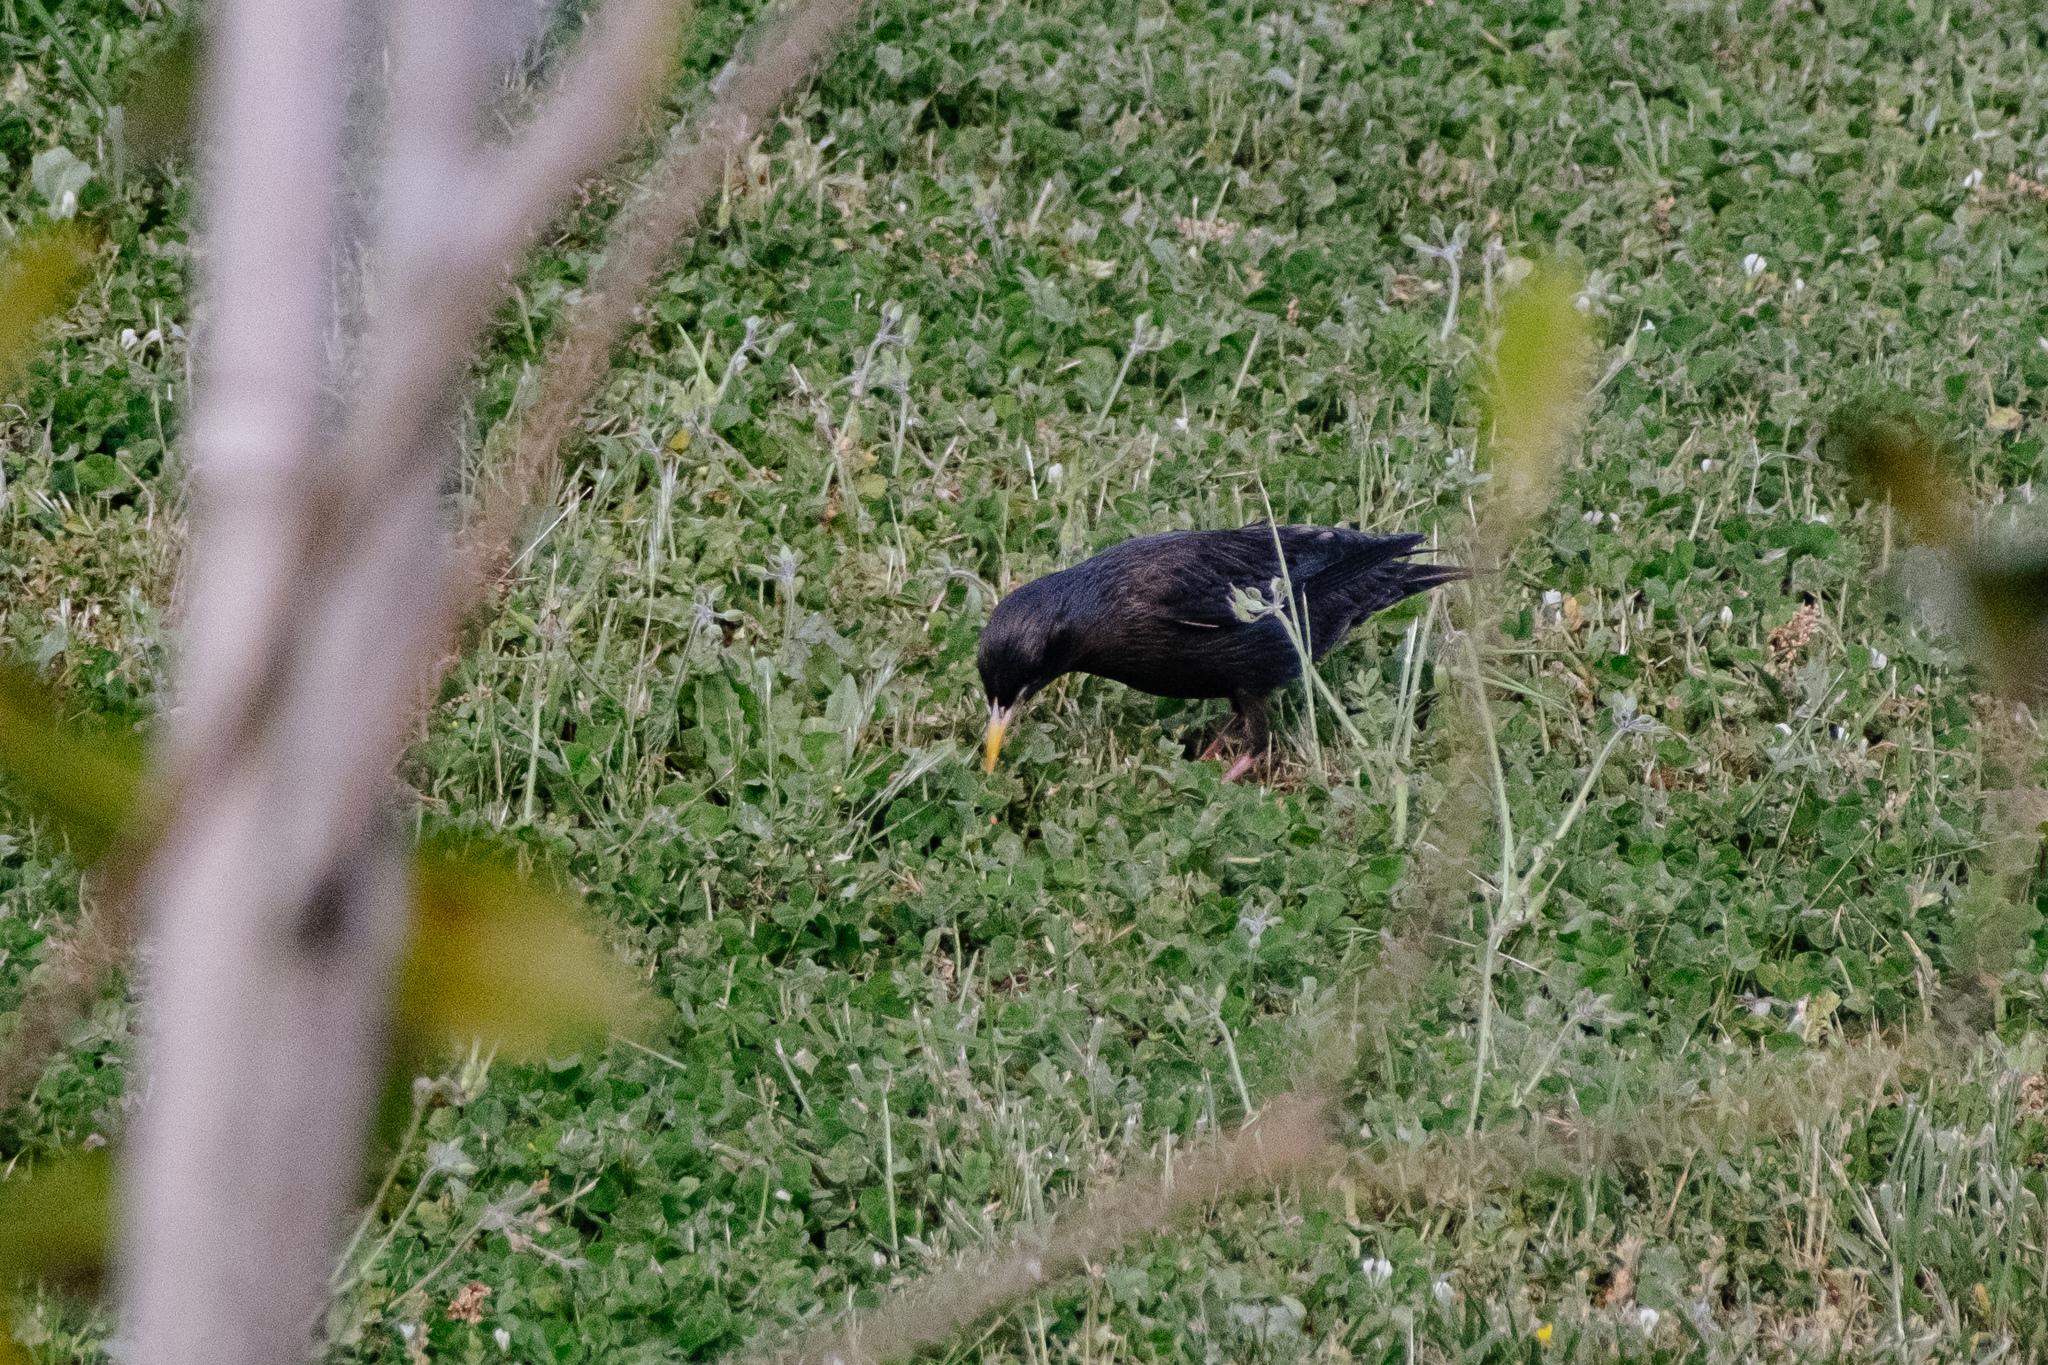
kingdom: Animalia
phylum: Chordata
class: Aves
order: Passeriformes
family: Sturnidae
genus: Sturnus
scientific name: Sturnus unicolor
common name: Spotless starling
